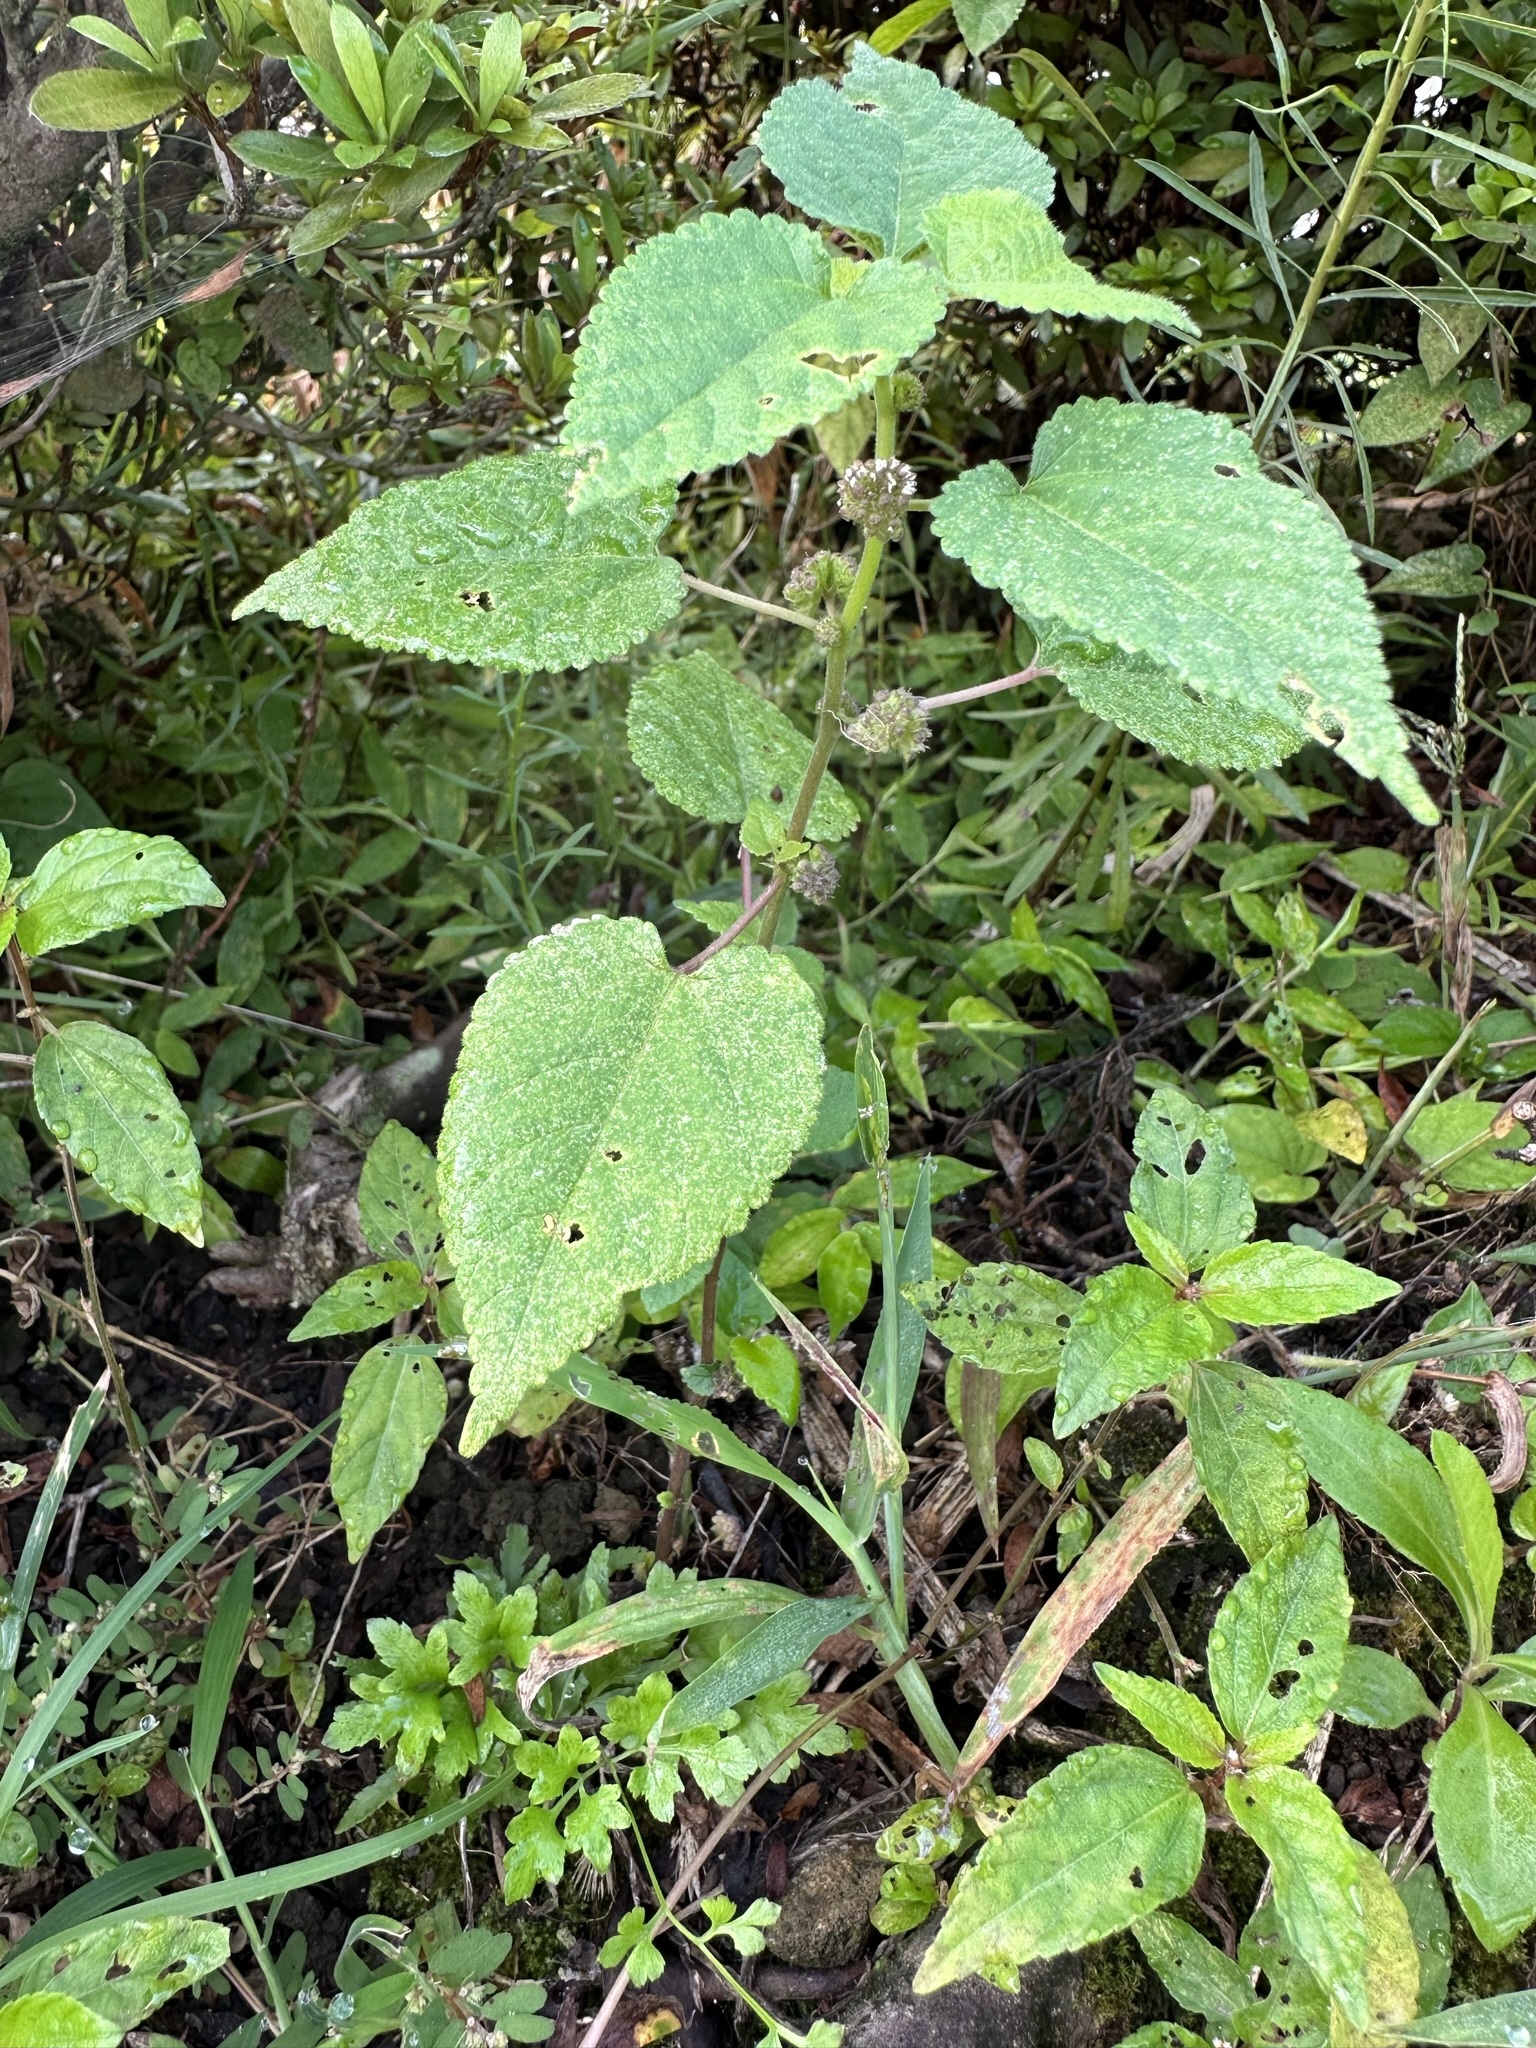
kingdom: Plantae
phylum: Tracheophyta
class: Magnoliopsida
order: Rosales
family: Moraceae
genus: Fatoua
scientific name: Fatoua villosa
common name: Hairy crabweed
